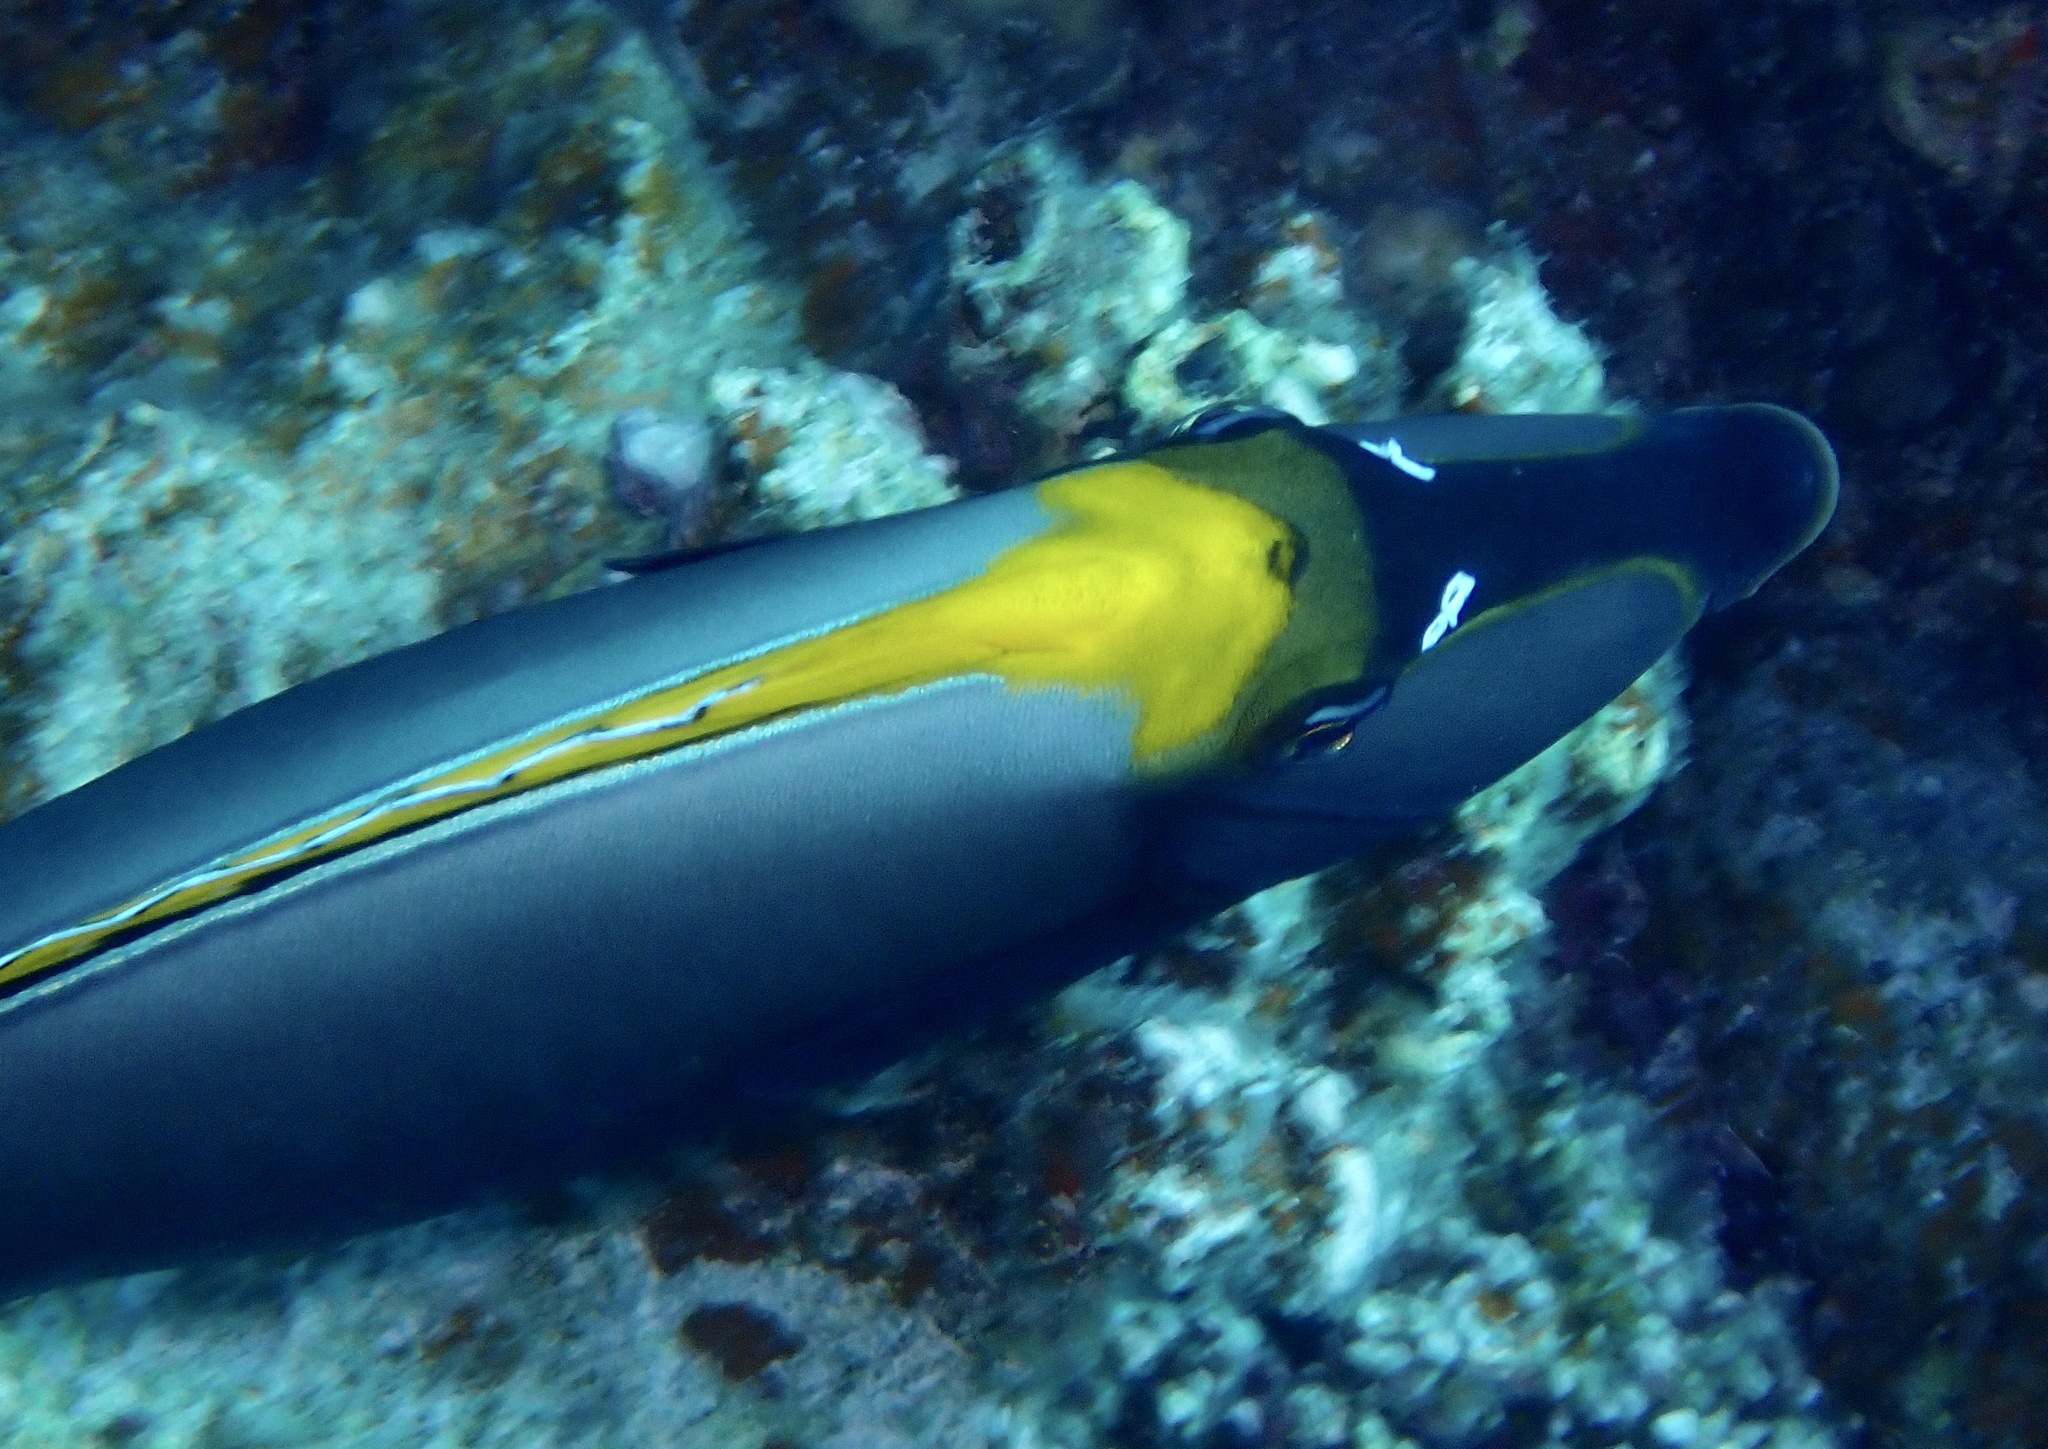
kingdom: Animalia
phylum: Chordata
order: Perciformes
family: Acanthuridae
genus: Naso
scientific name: Naso elegans
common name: Orangespine unicornfish
